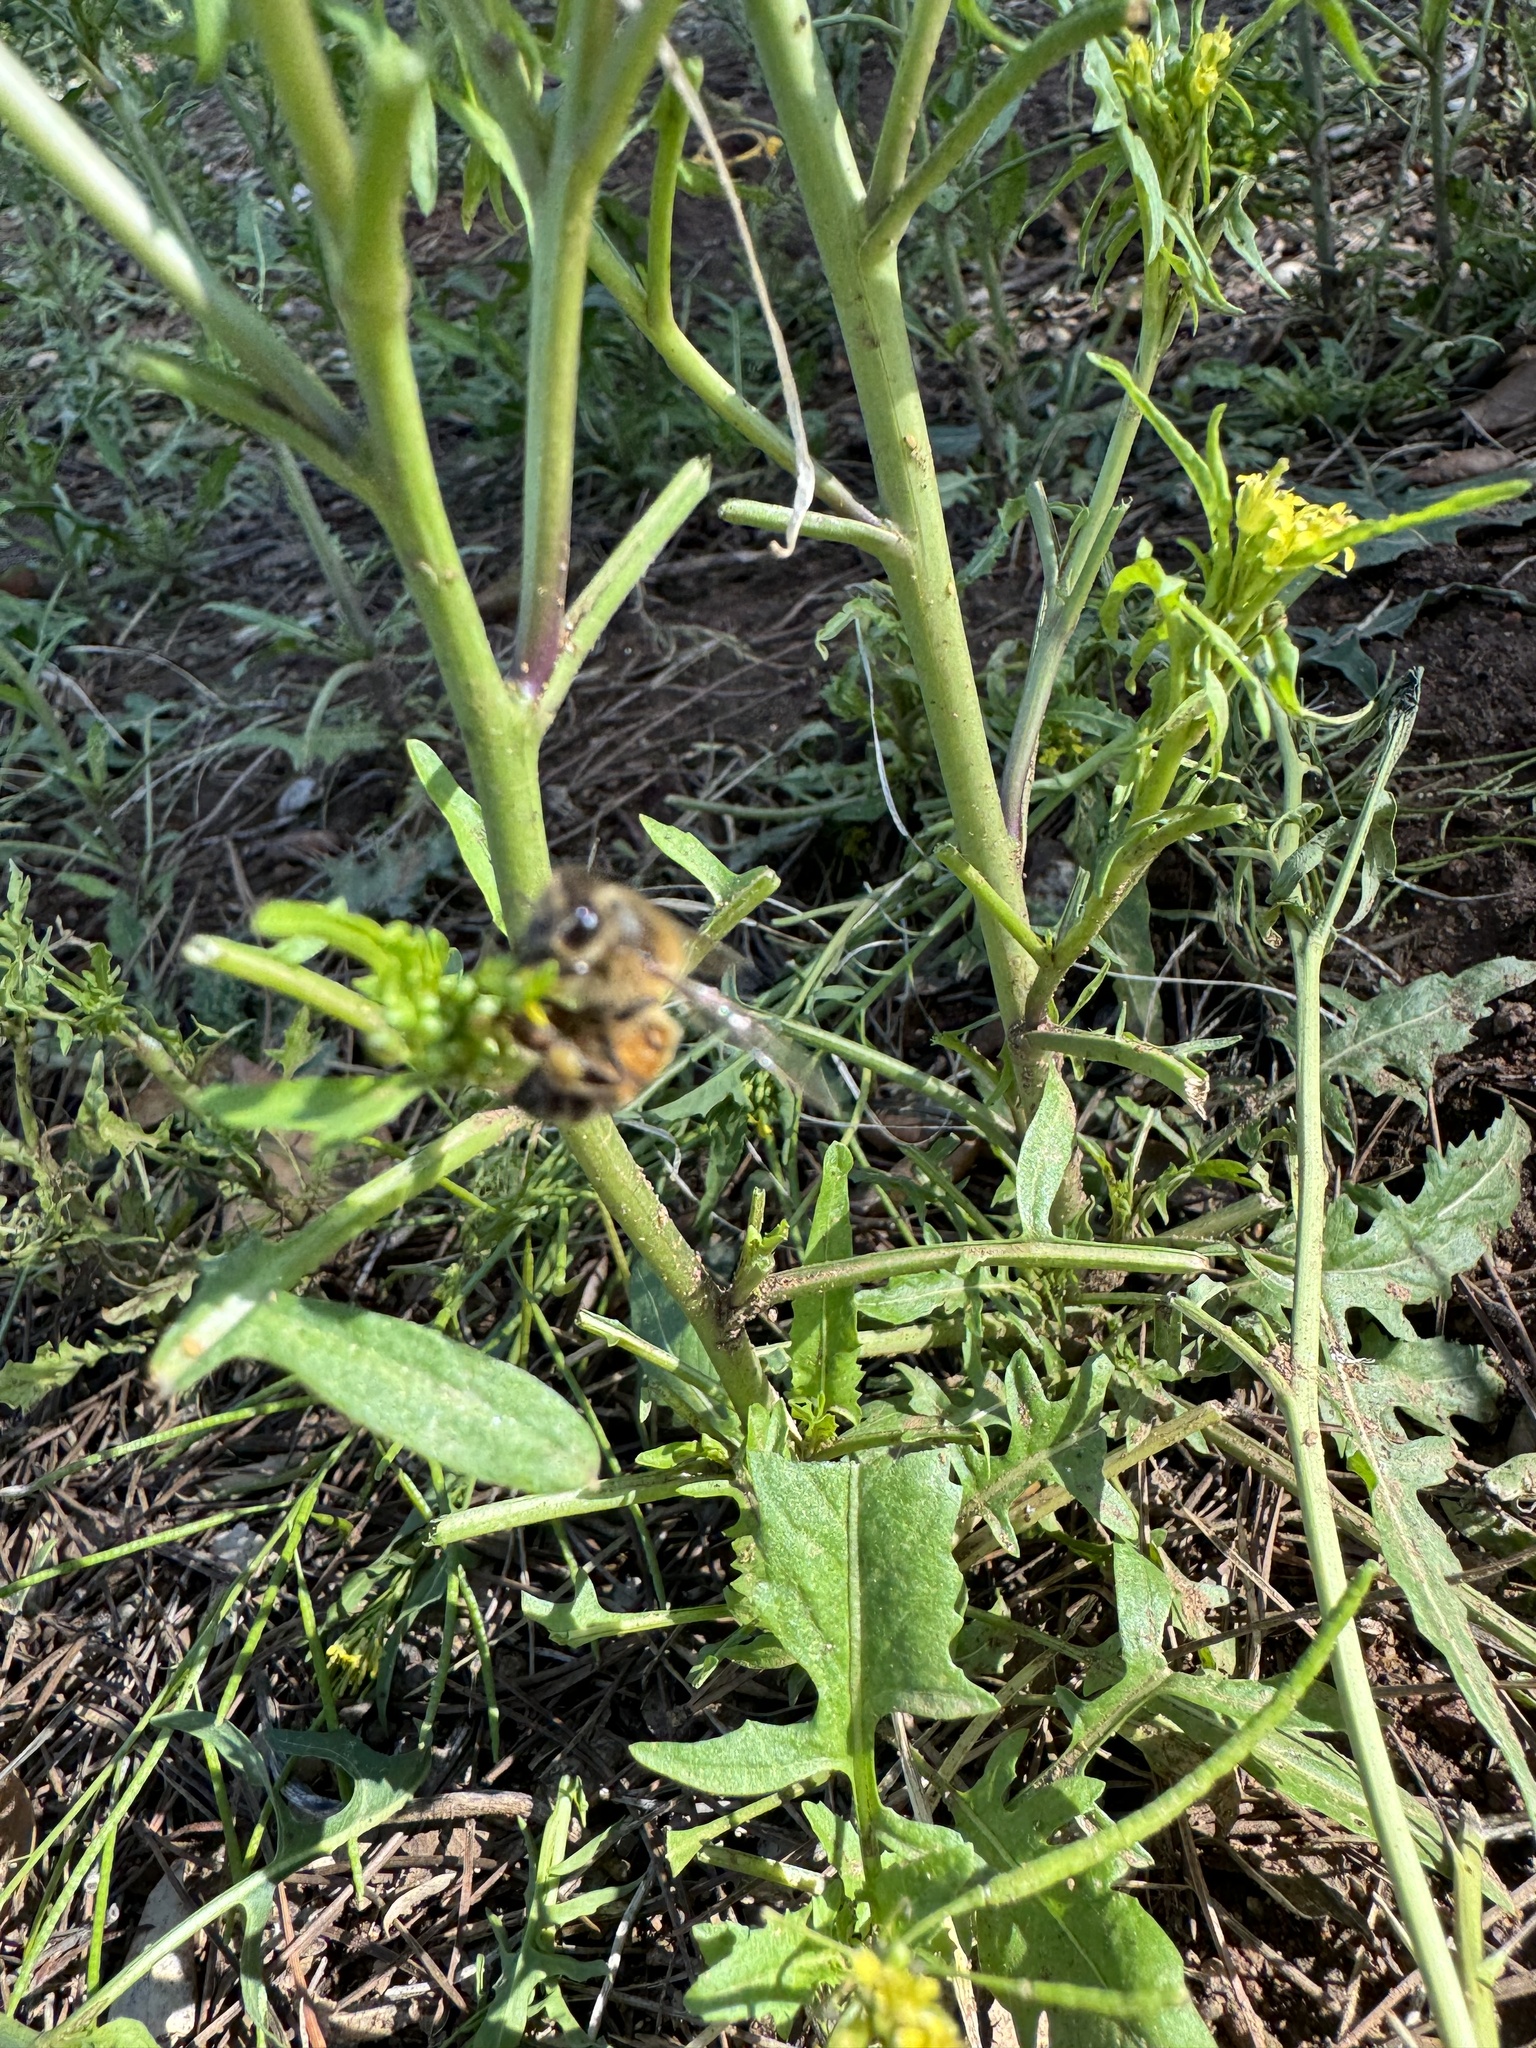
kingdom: Animalia
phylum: Arthropoda
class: Insecta
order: Hymenoptera
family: Apidae
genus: Apis
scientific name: Apis mellifera
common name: Honey bee
